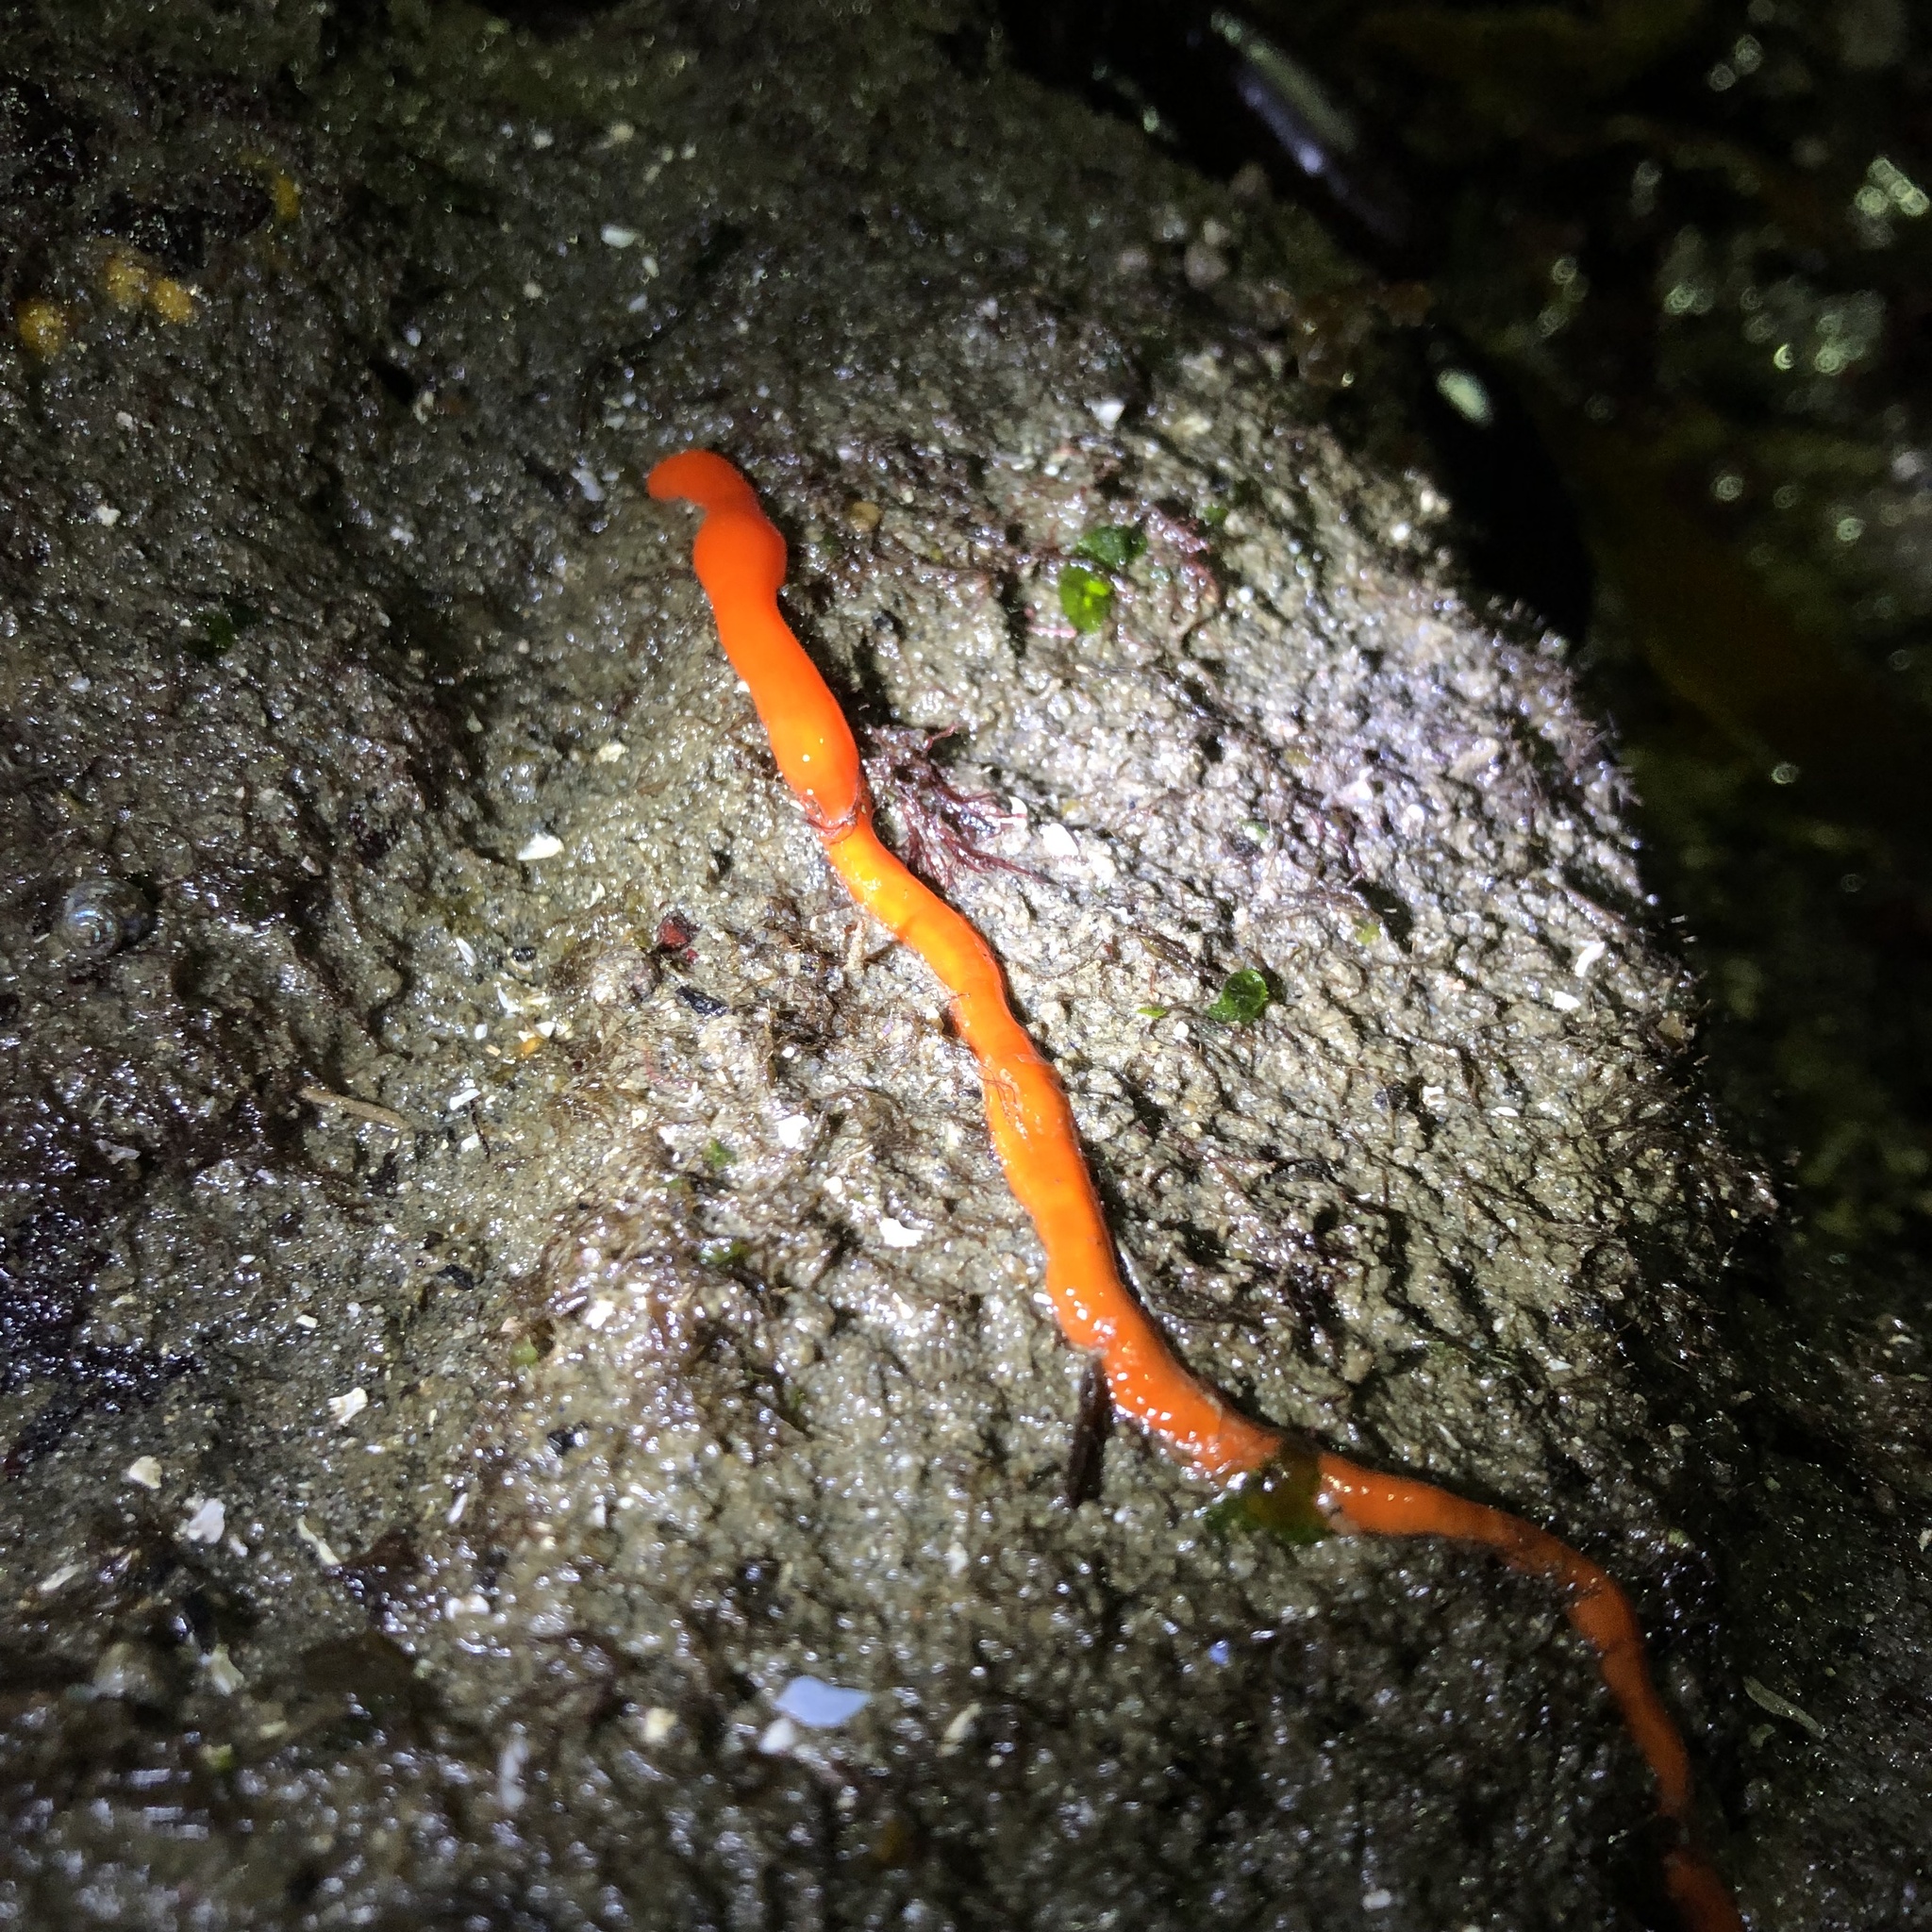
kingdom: Animalia
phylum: Nemertea
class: Palaeonemertea
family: Tubulanidae
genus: Tubulanus
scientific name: Tubulanus polymorphus
